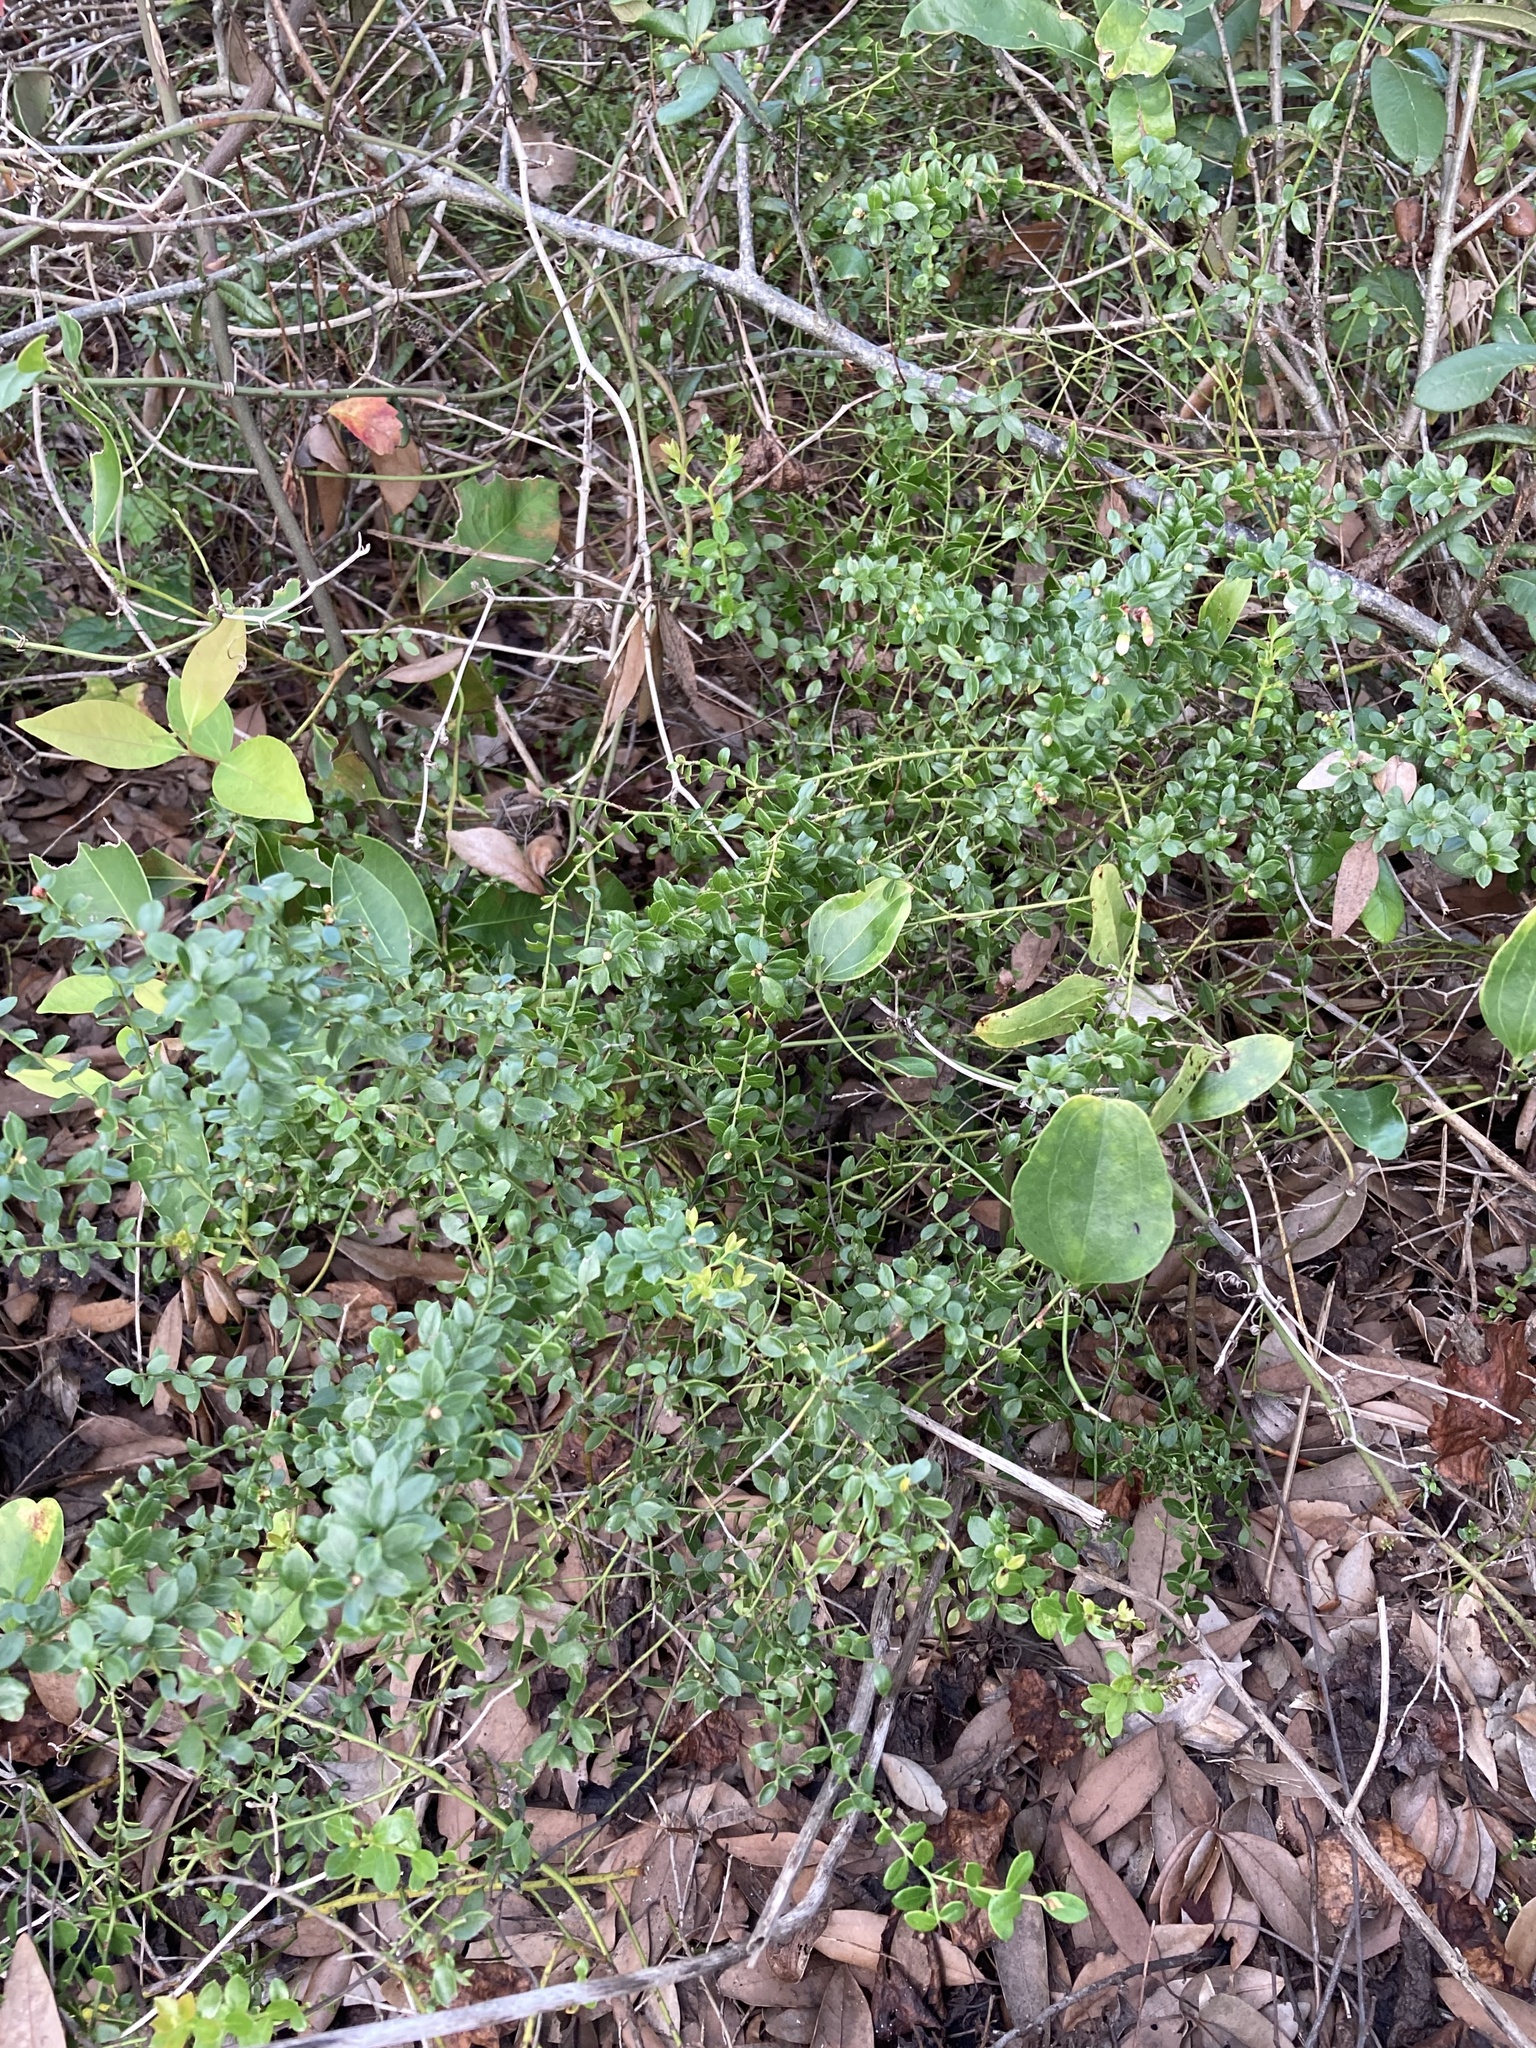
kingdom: Plantae
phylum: Tracheophyta
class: Magnoliopsida
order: Ericales
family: Ericaceae
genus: Vaccinium
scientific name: Vaccinium myrsinites
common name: Evergreen blueberry
